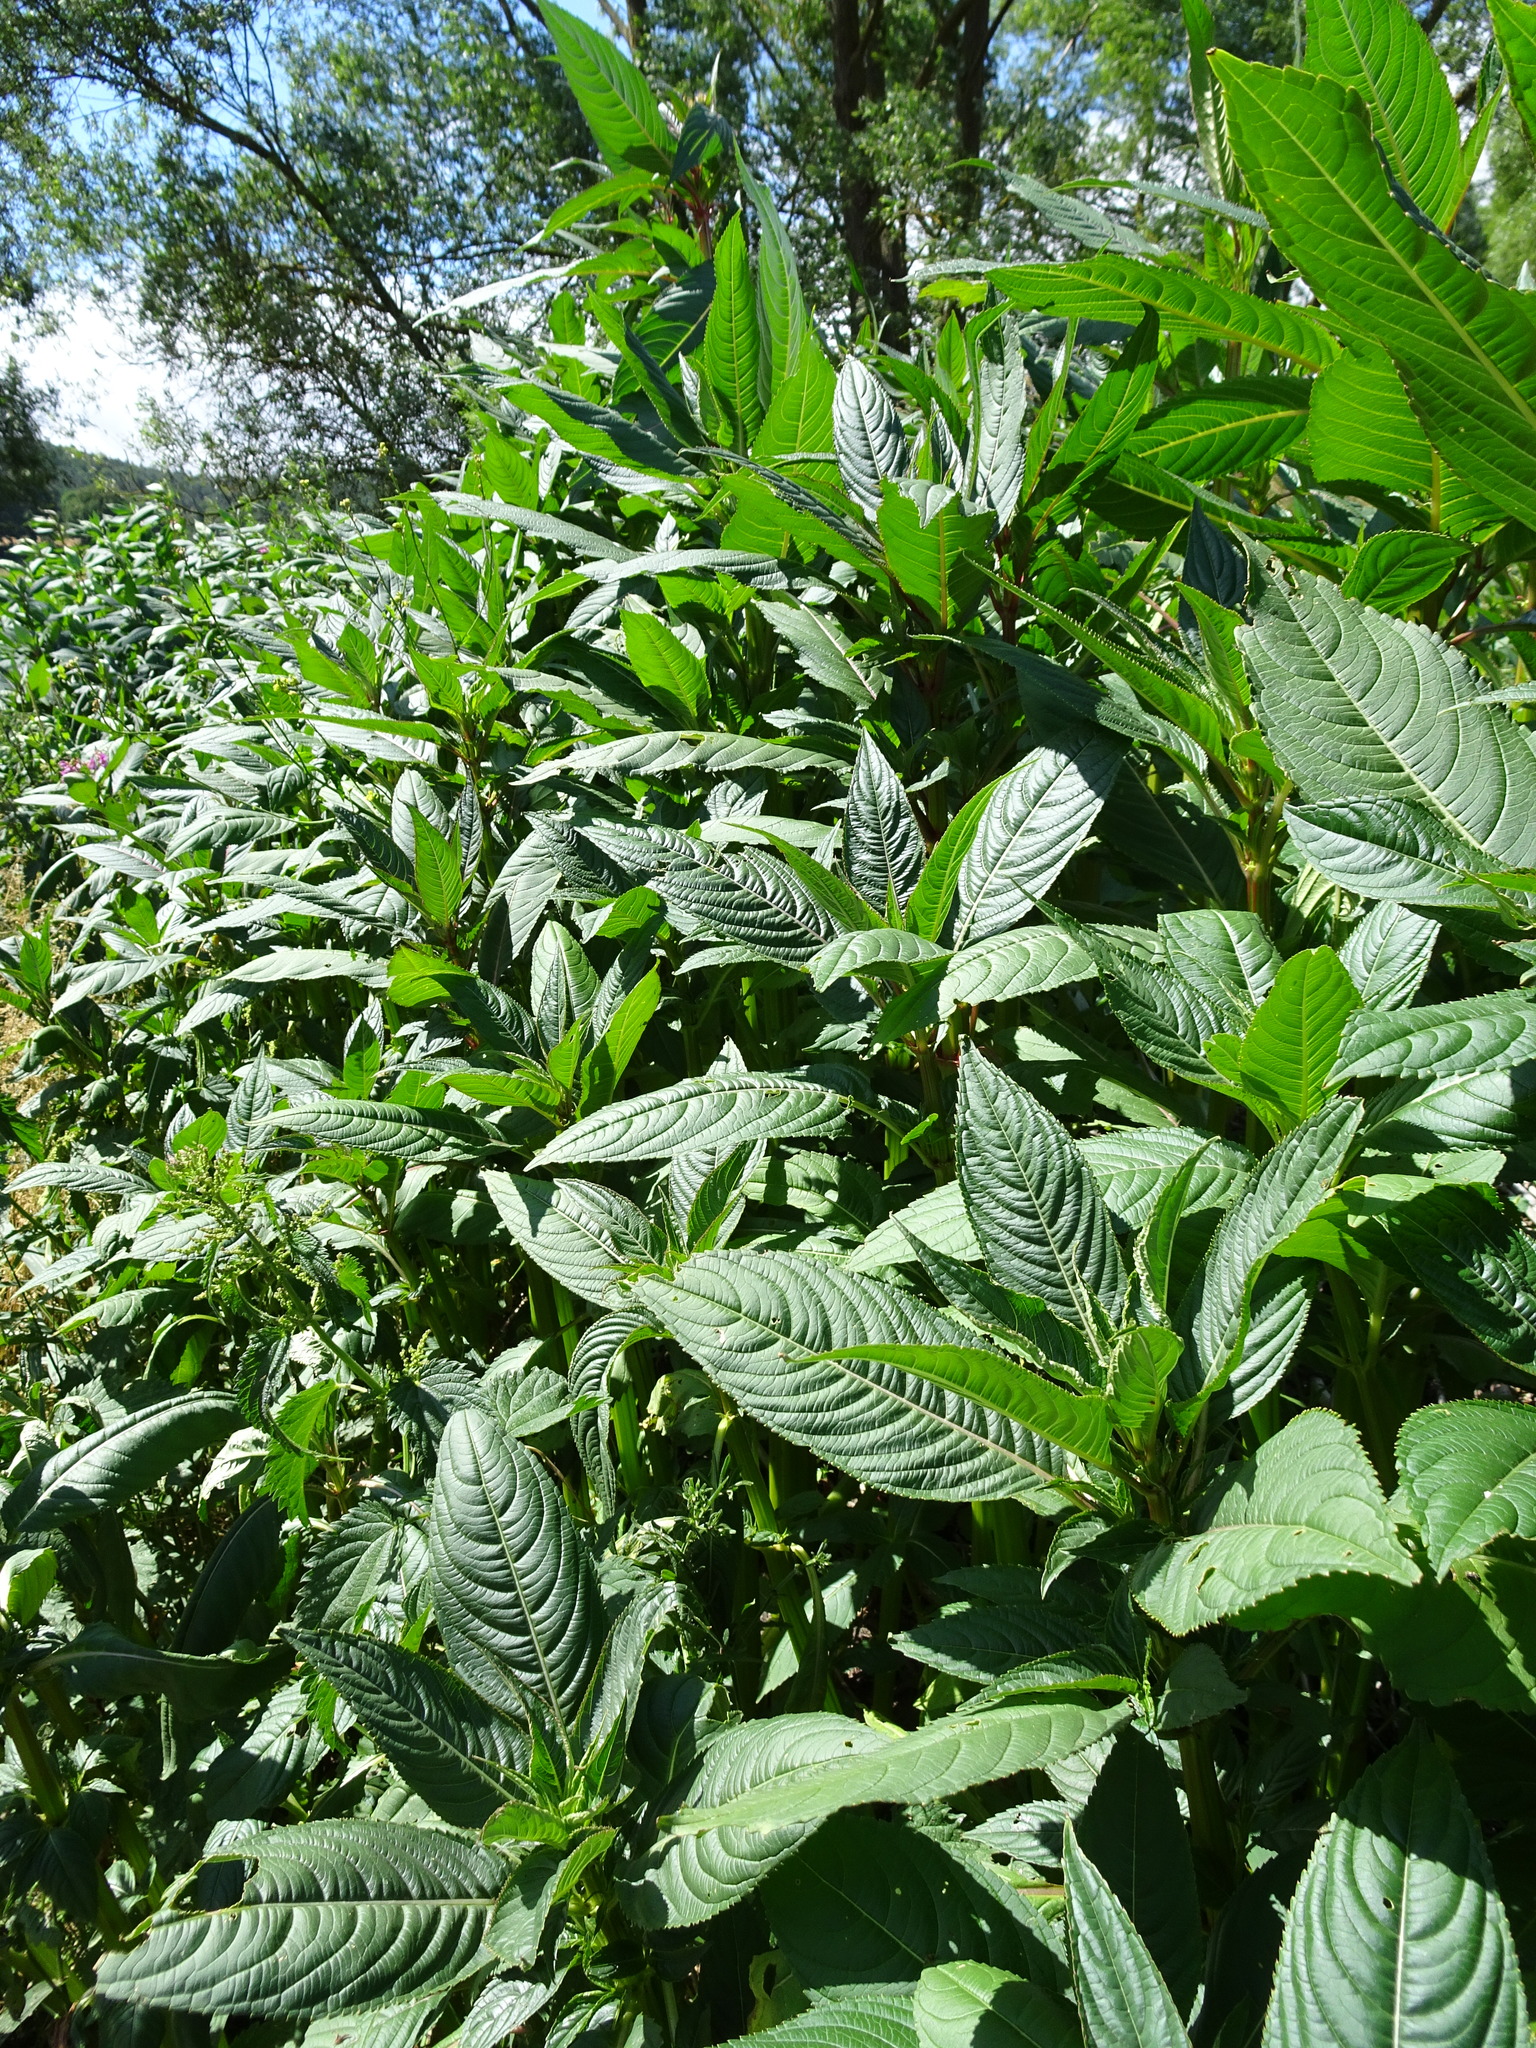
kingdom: Plantae
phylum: Tracheophyta
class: Magnoliopsida
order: Ericales
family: Balsaminaceae
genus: Impatiens
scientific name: Impatiens glandulifera
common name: Himalayan balsam
